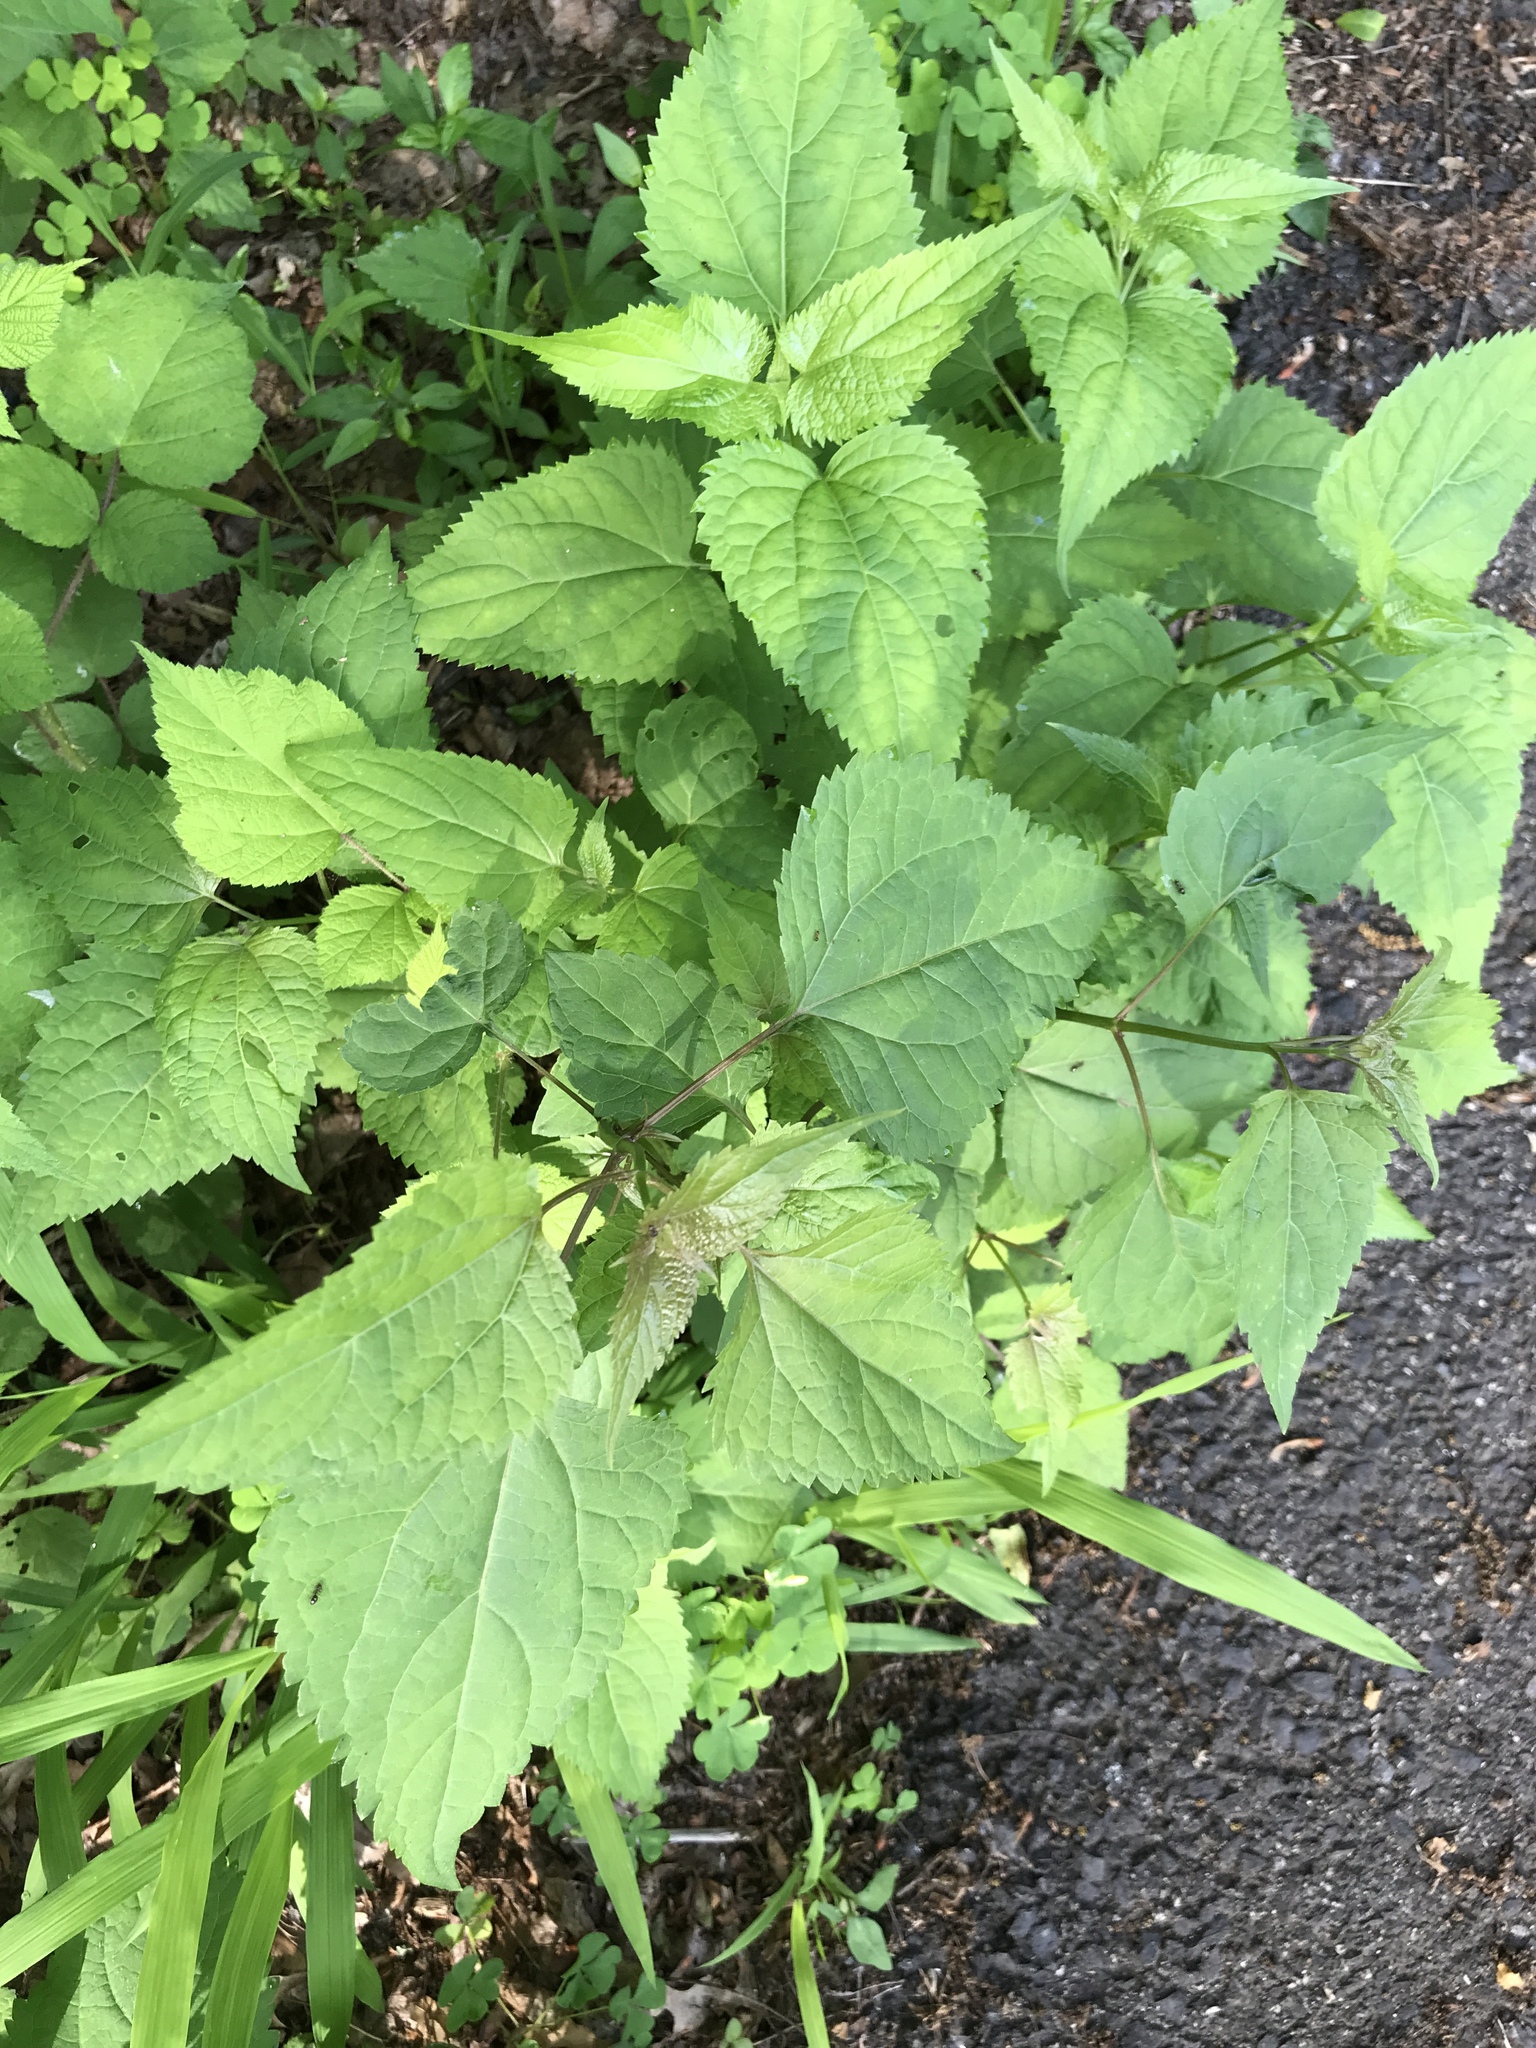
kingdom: Plantae
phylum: Tracheophyta
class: Magnoliopsida
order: Asterales
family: Asteraceae
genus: Ageratina
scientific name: Ageratina altissima
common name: White snakeroot
